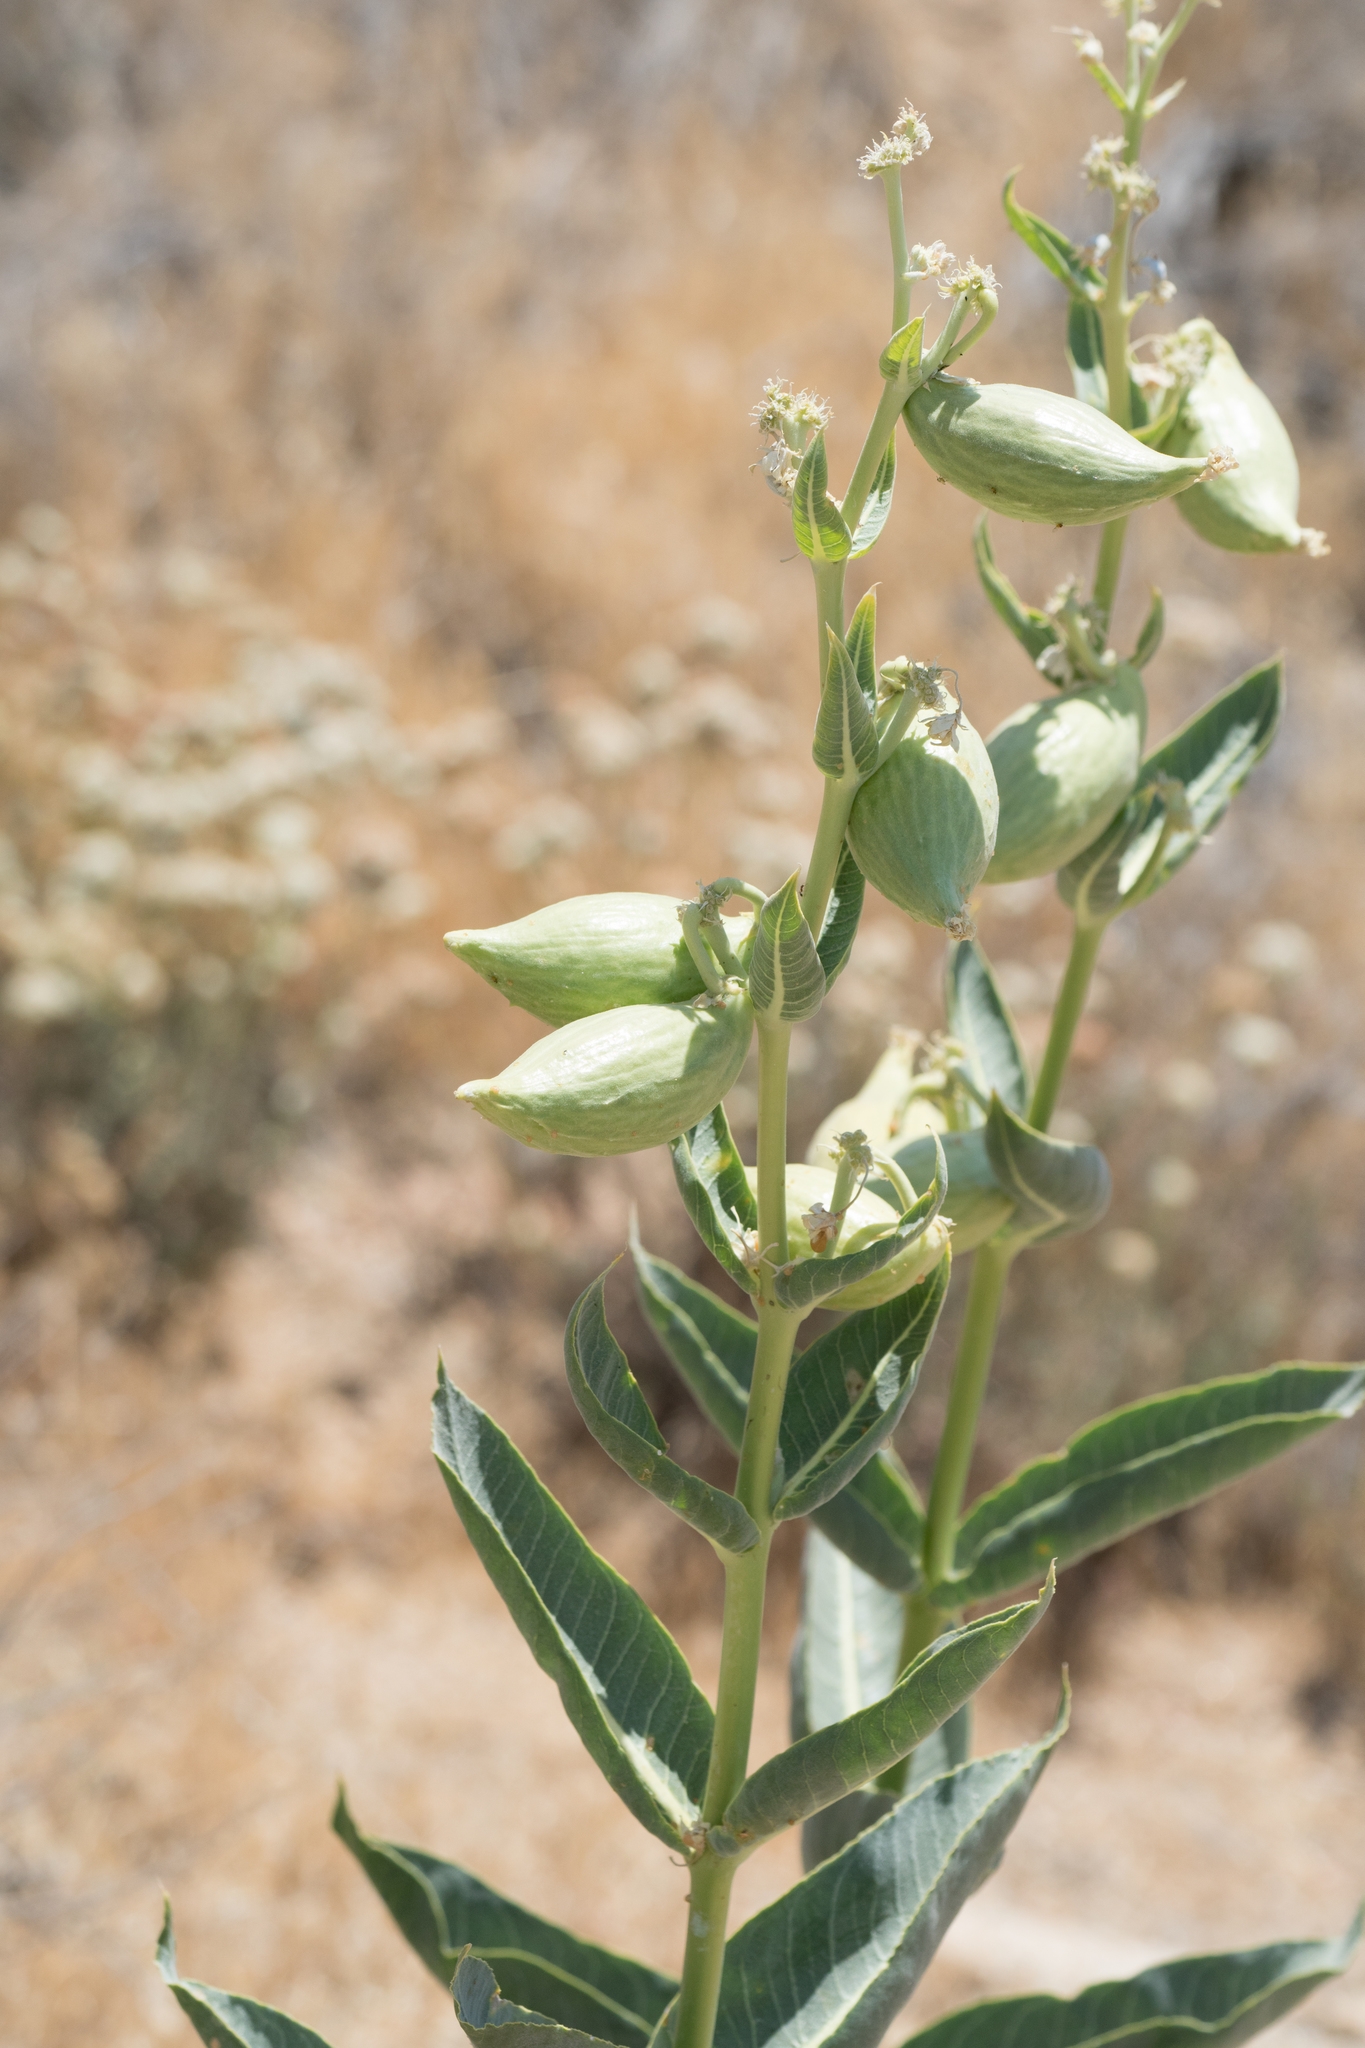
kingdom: Plantae
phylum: Tracheophyta
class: Magnoliopsida
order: Gentianales
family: Apocynaceae
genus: Asclepias
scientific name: Asclepias erosa
